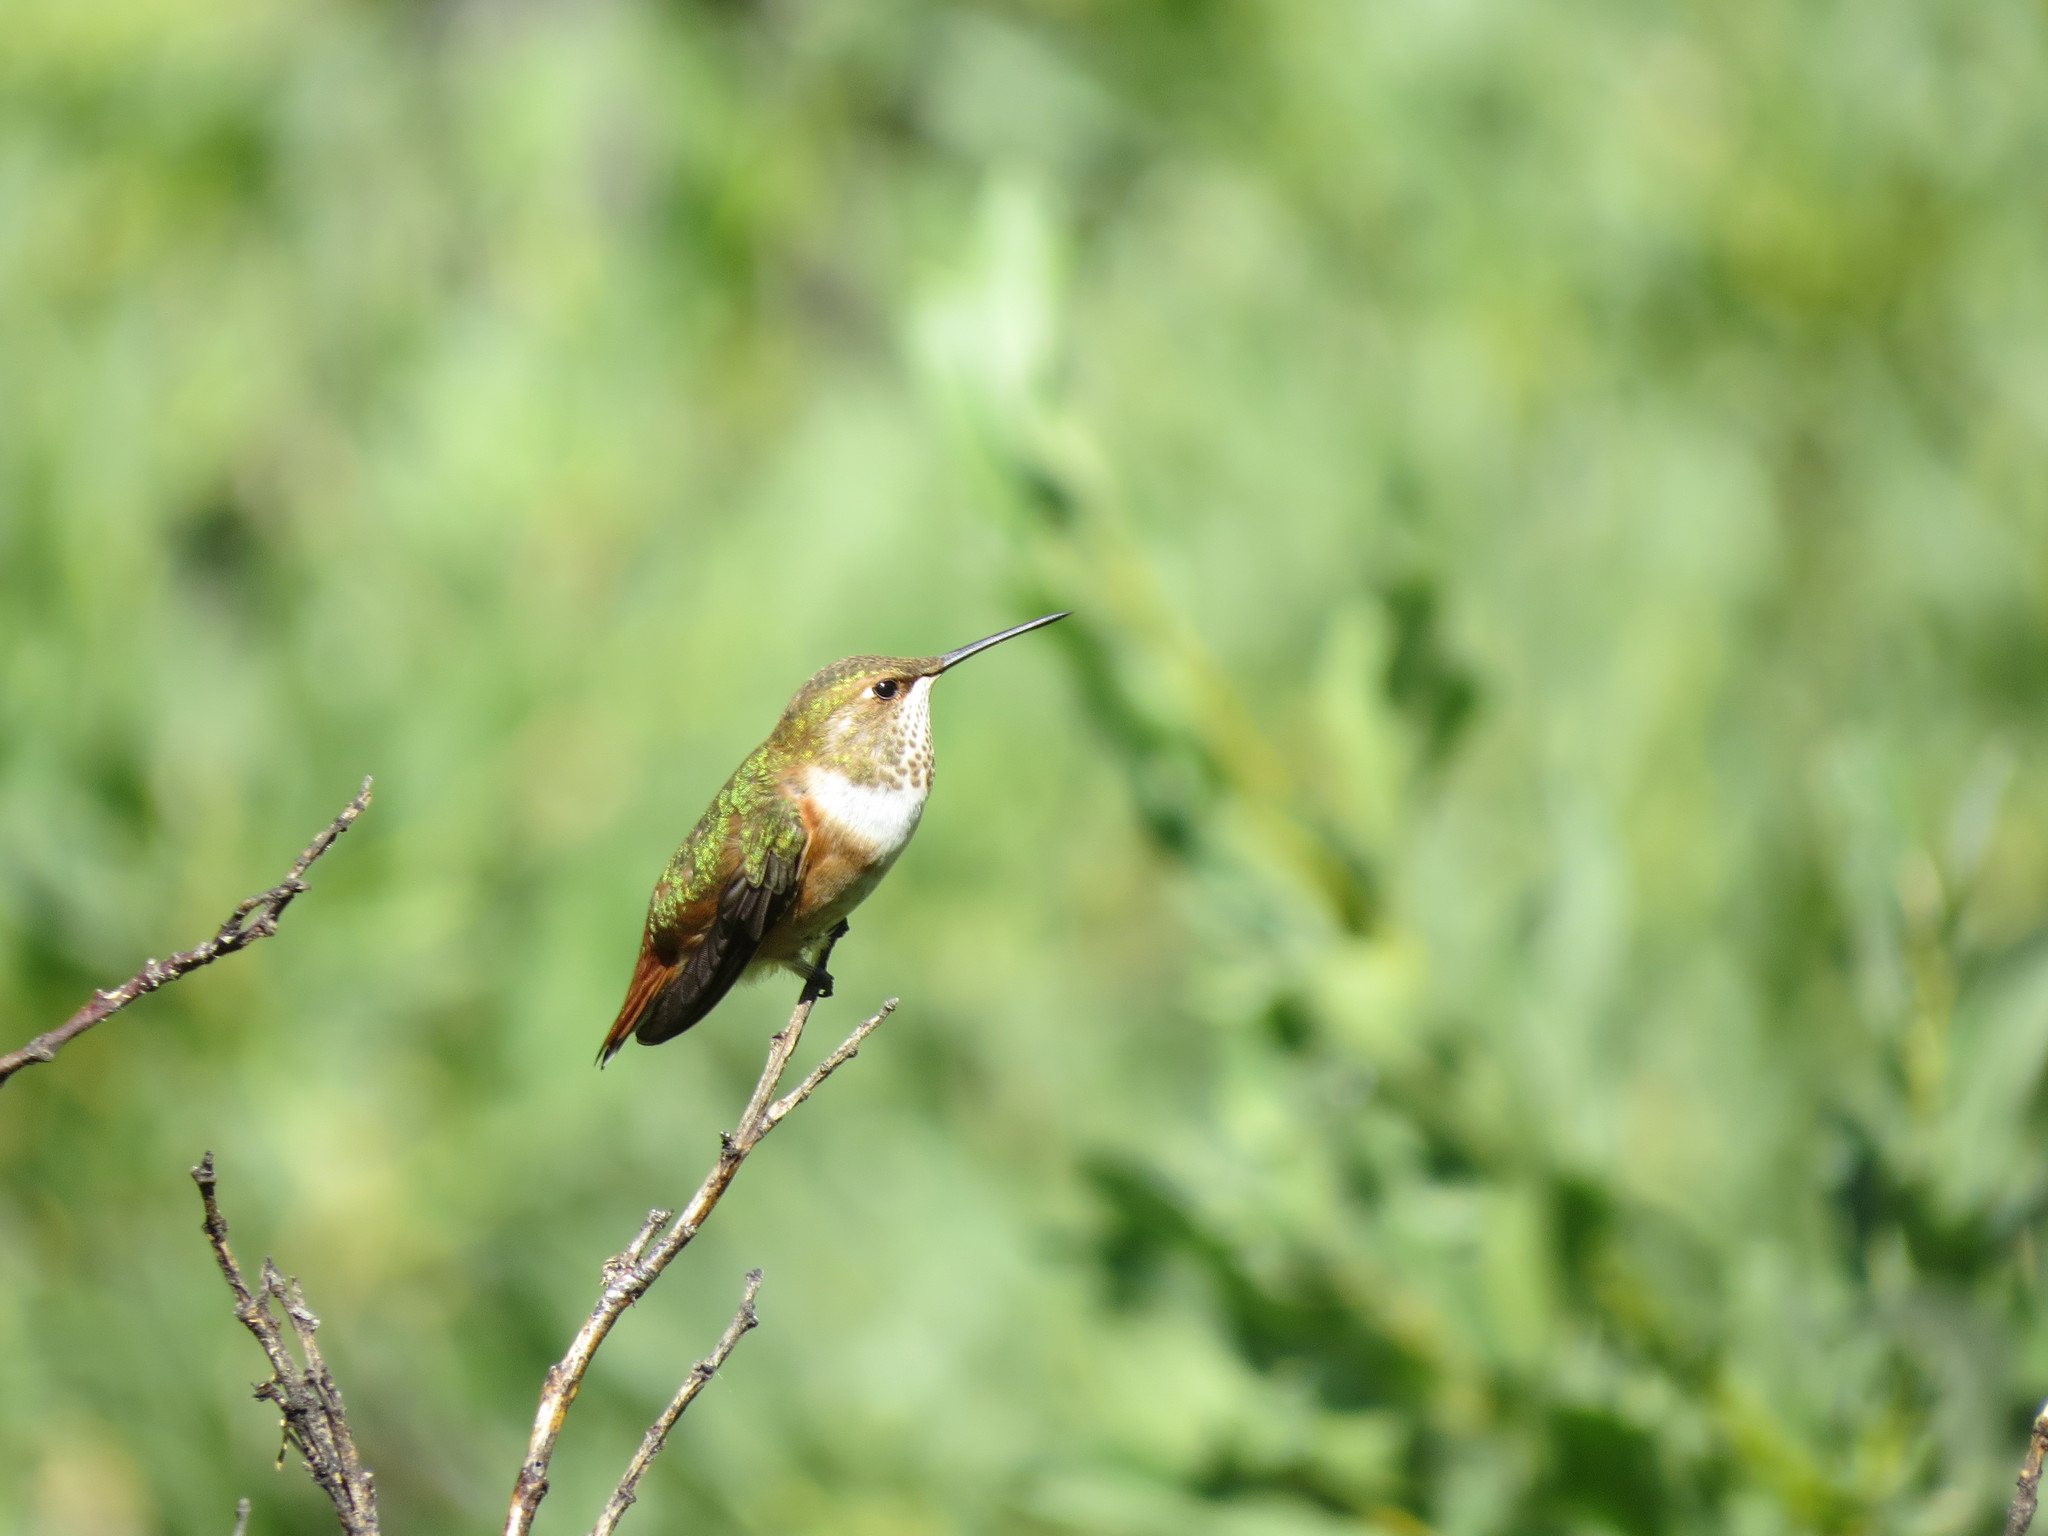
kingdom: Animalia
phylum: Chordata
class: Aves
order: Apodiformes
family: Trochilidae
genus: Selasphorus
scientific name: Selasphorus rufus
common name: Rufous hummingbird
